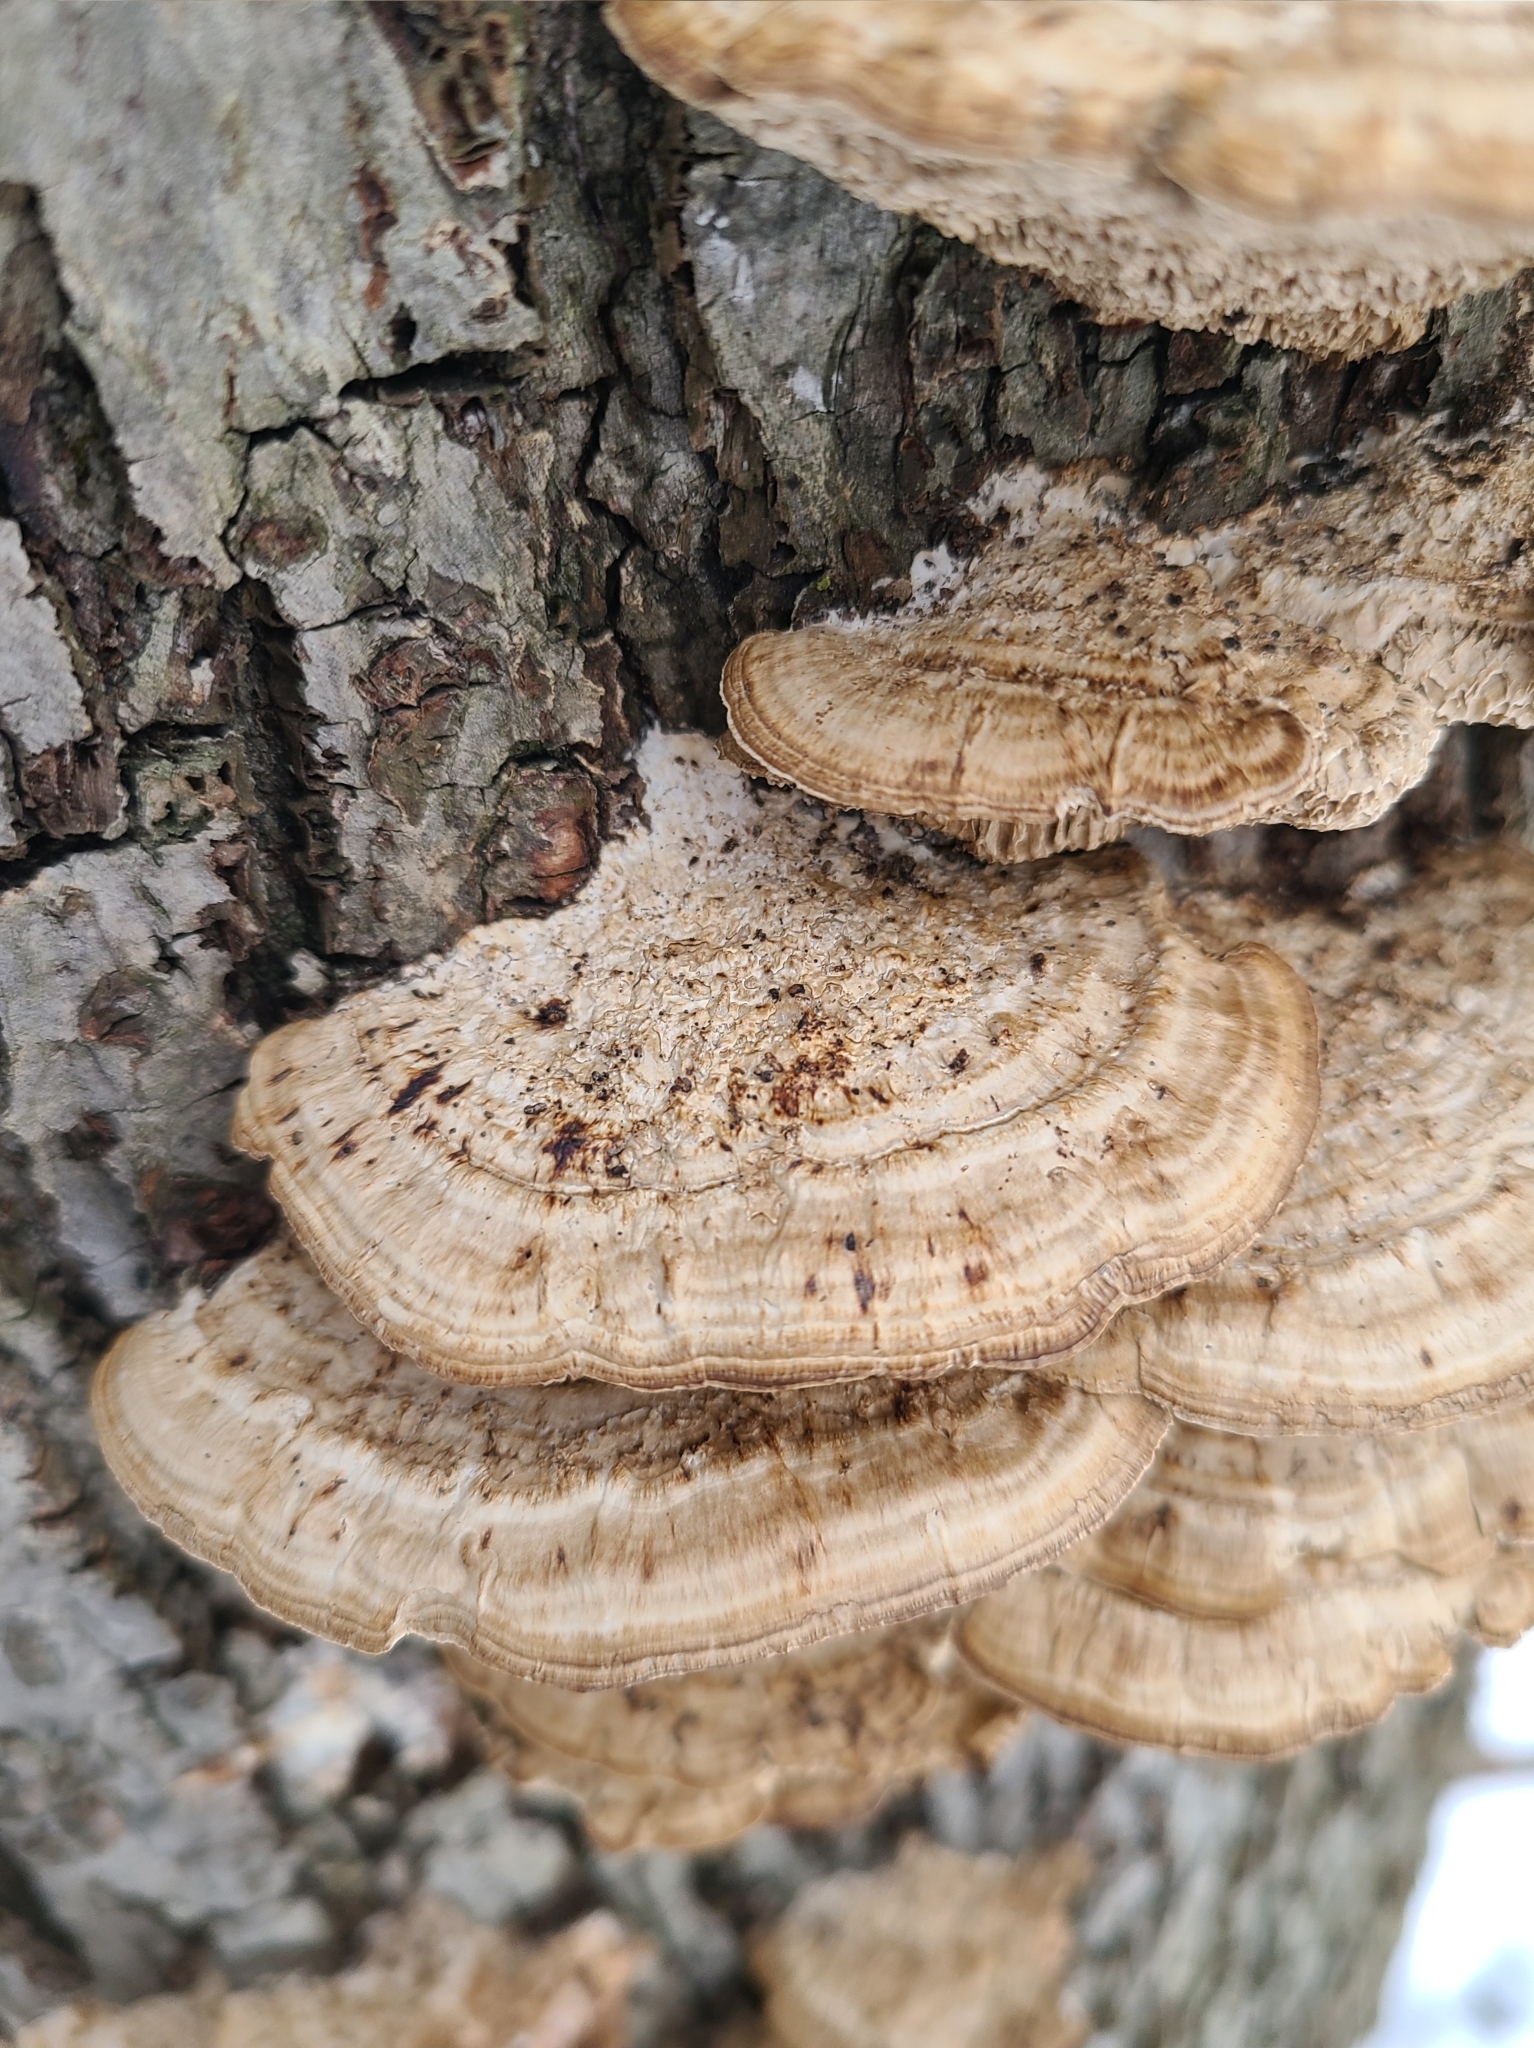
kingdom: Fungi
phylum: Basidiomycota
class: Agaricomycetes
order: Polyporales
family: Polyporaceae
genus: Daedaleopsis
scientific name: Daedaleopsis confragosa
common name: Blushing bracket
